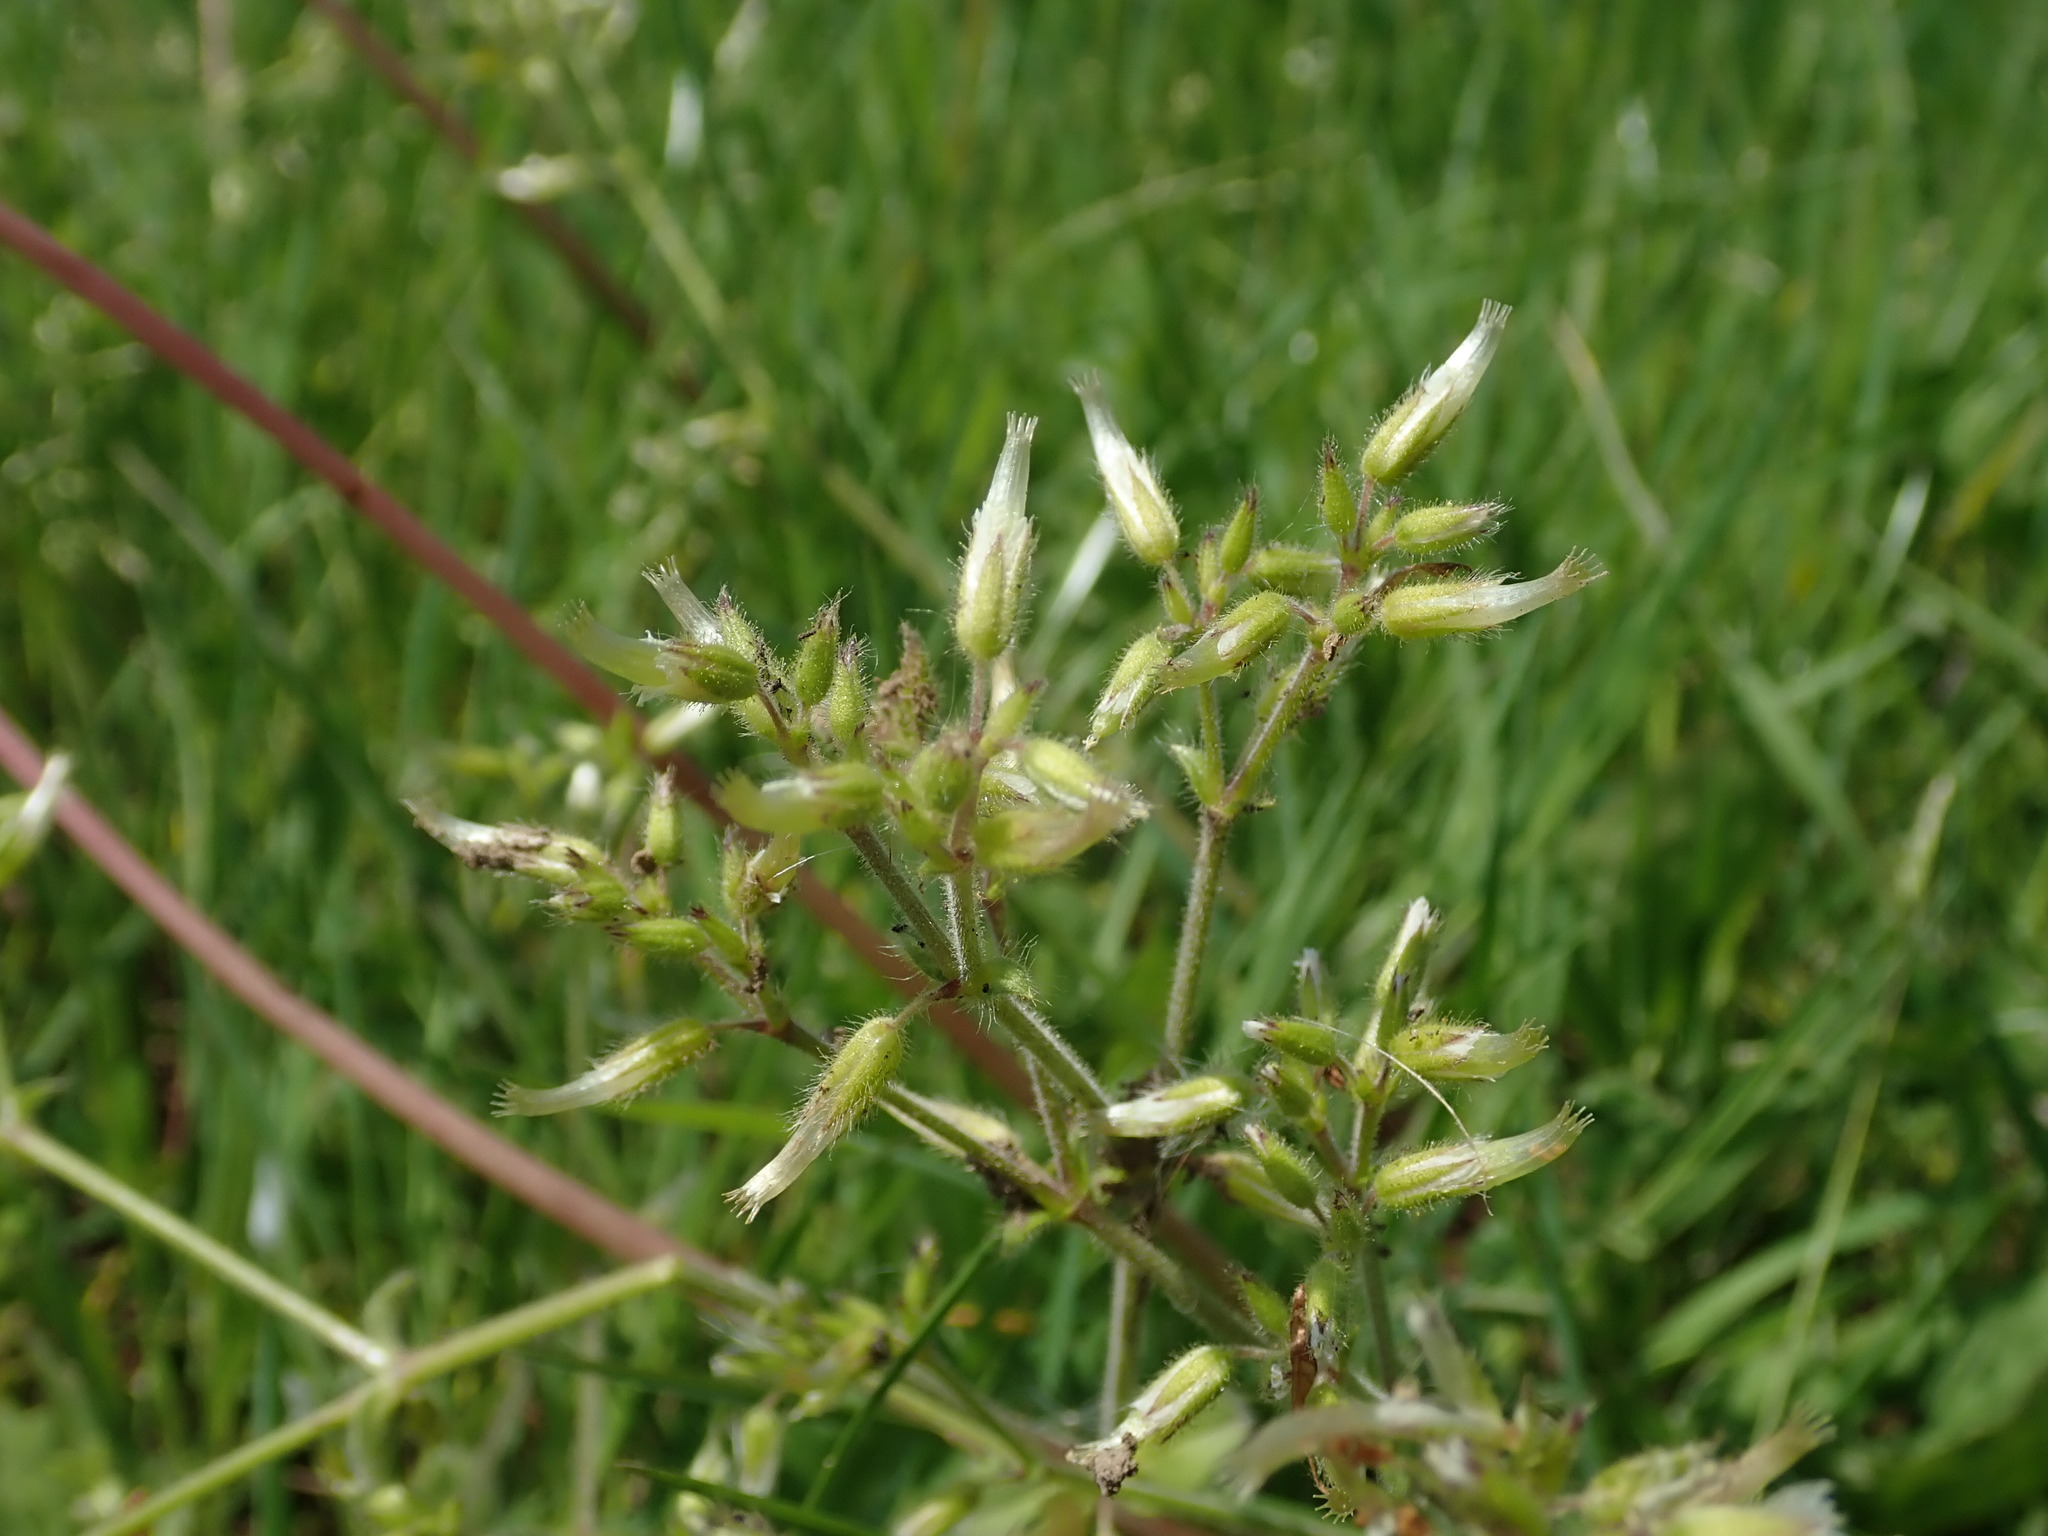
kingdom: Plantae
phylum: Tracheophyta
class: Magnoliopsida
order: Caryophyllales
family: Caryophyllaceae
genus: Cerastium
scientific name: Cerastium glomeratum
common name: Sticky chickweed
